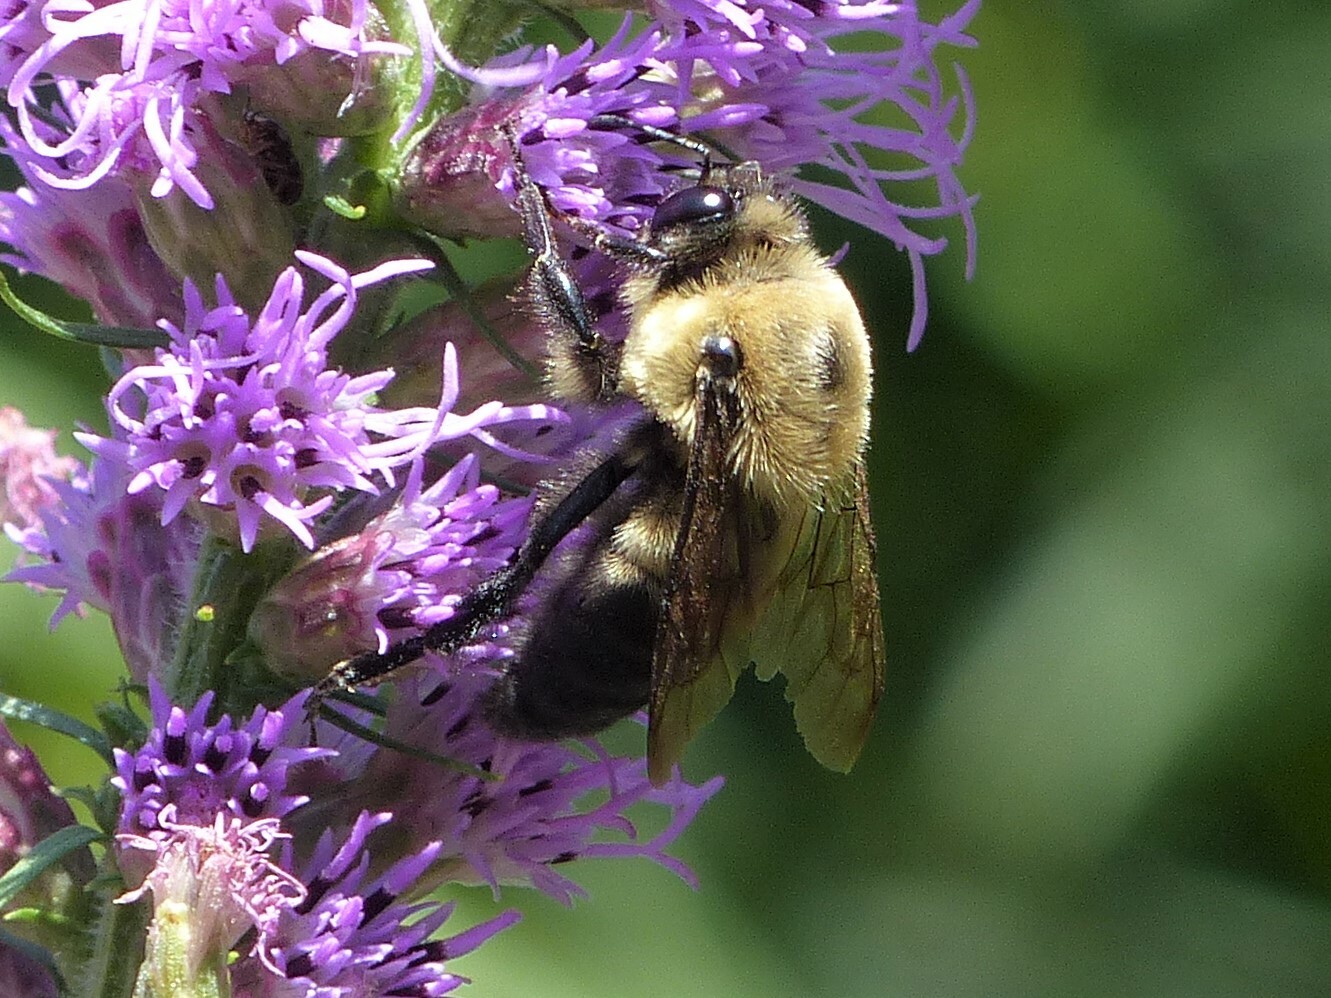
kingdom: Animalia
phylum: Arthropoda
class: Insecta
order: Hymenoptera
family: Apidae
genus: Bombus
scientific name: Bombus griseocollis
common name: Brown-belted bumble bee
